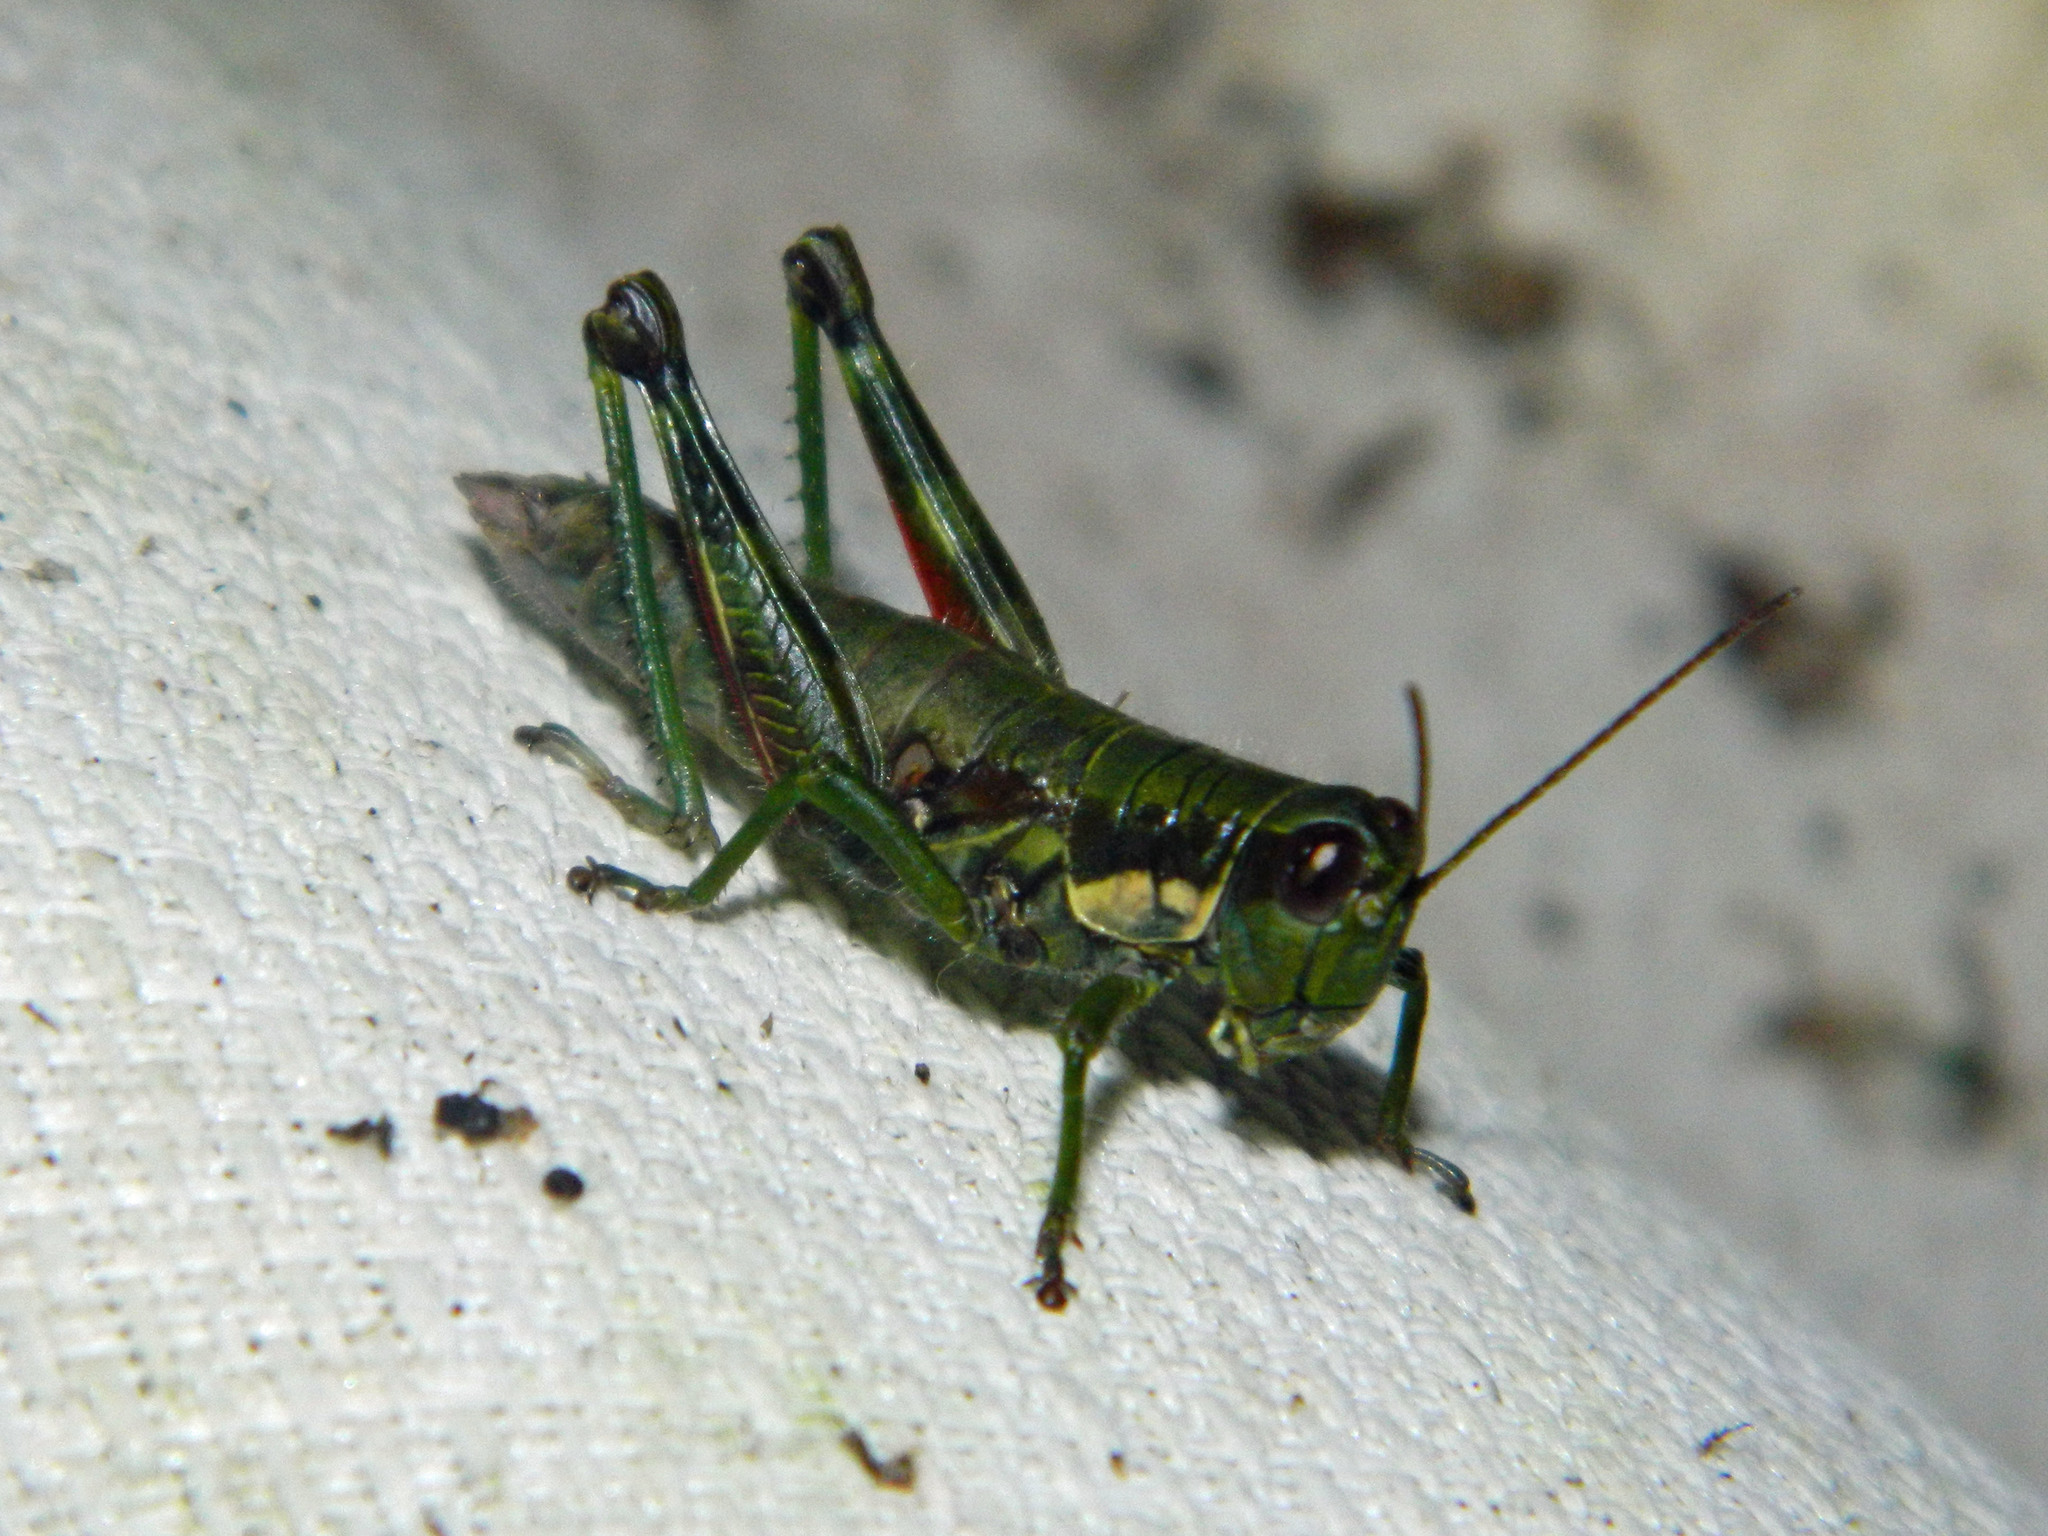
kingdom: Animalia
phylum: Arthropoda
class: Insecta
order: Orthoptera
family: Acrididae
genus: Booneacris
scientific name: Booneacris glacialis
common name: Wingless mountain grasshopper
